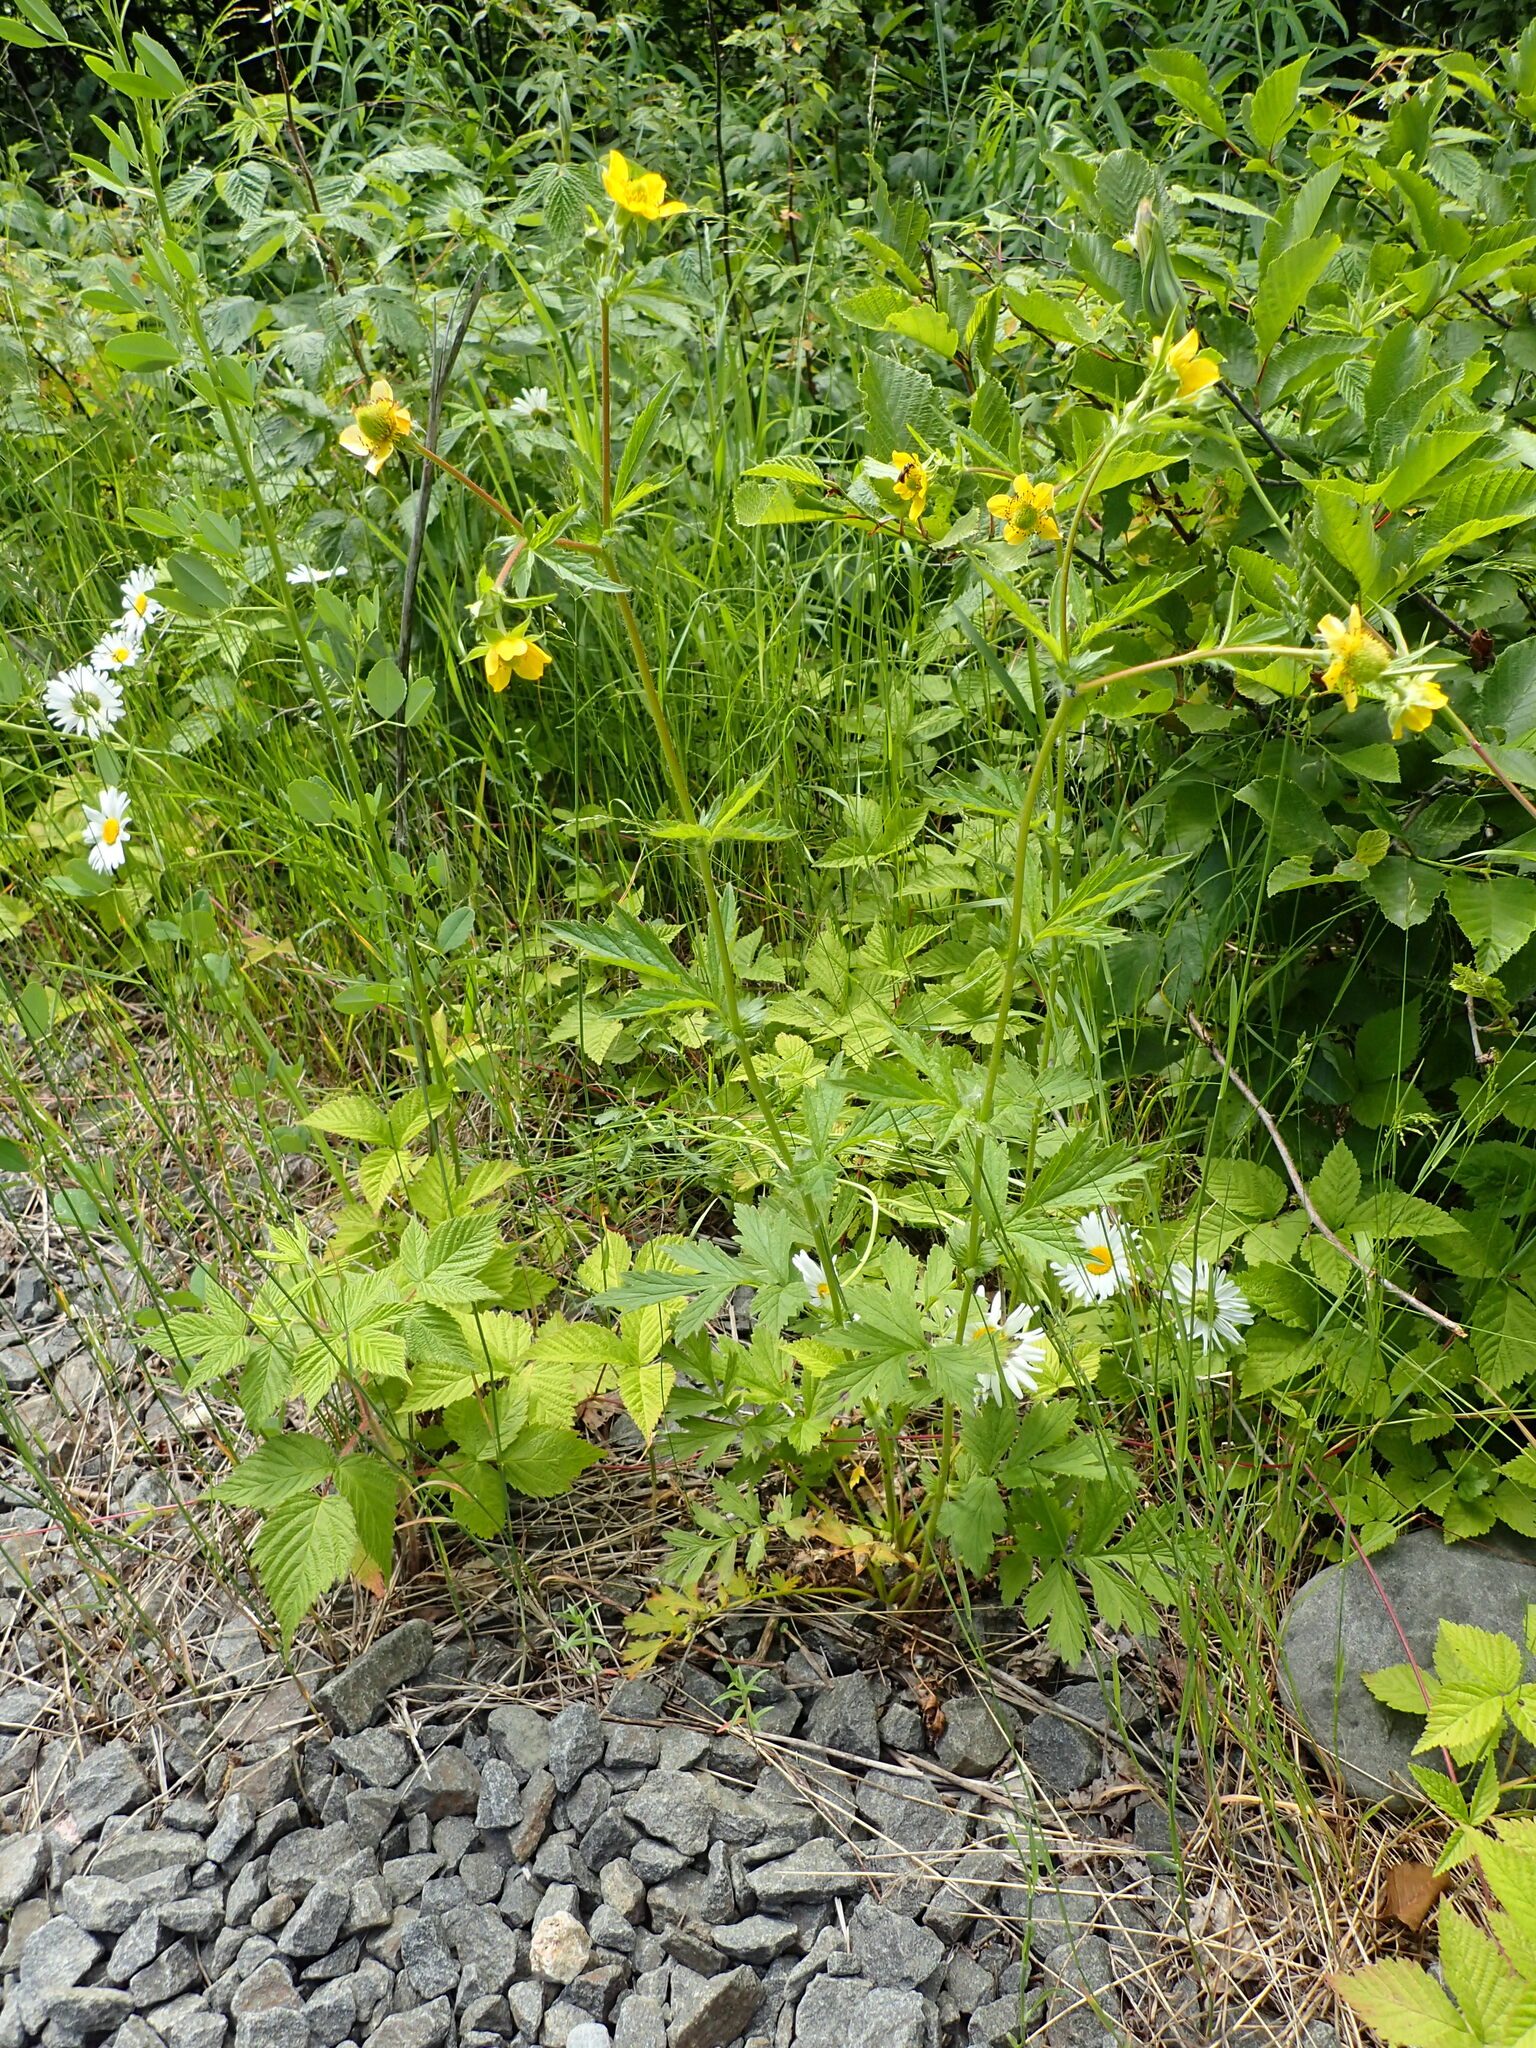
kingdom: Plantae
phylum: Tracheophyta
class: Magnoliopsida
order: Rosales
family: Rosaceae
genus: Geum
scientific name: Geum aleppicum
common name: Yellow avens
